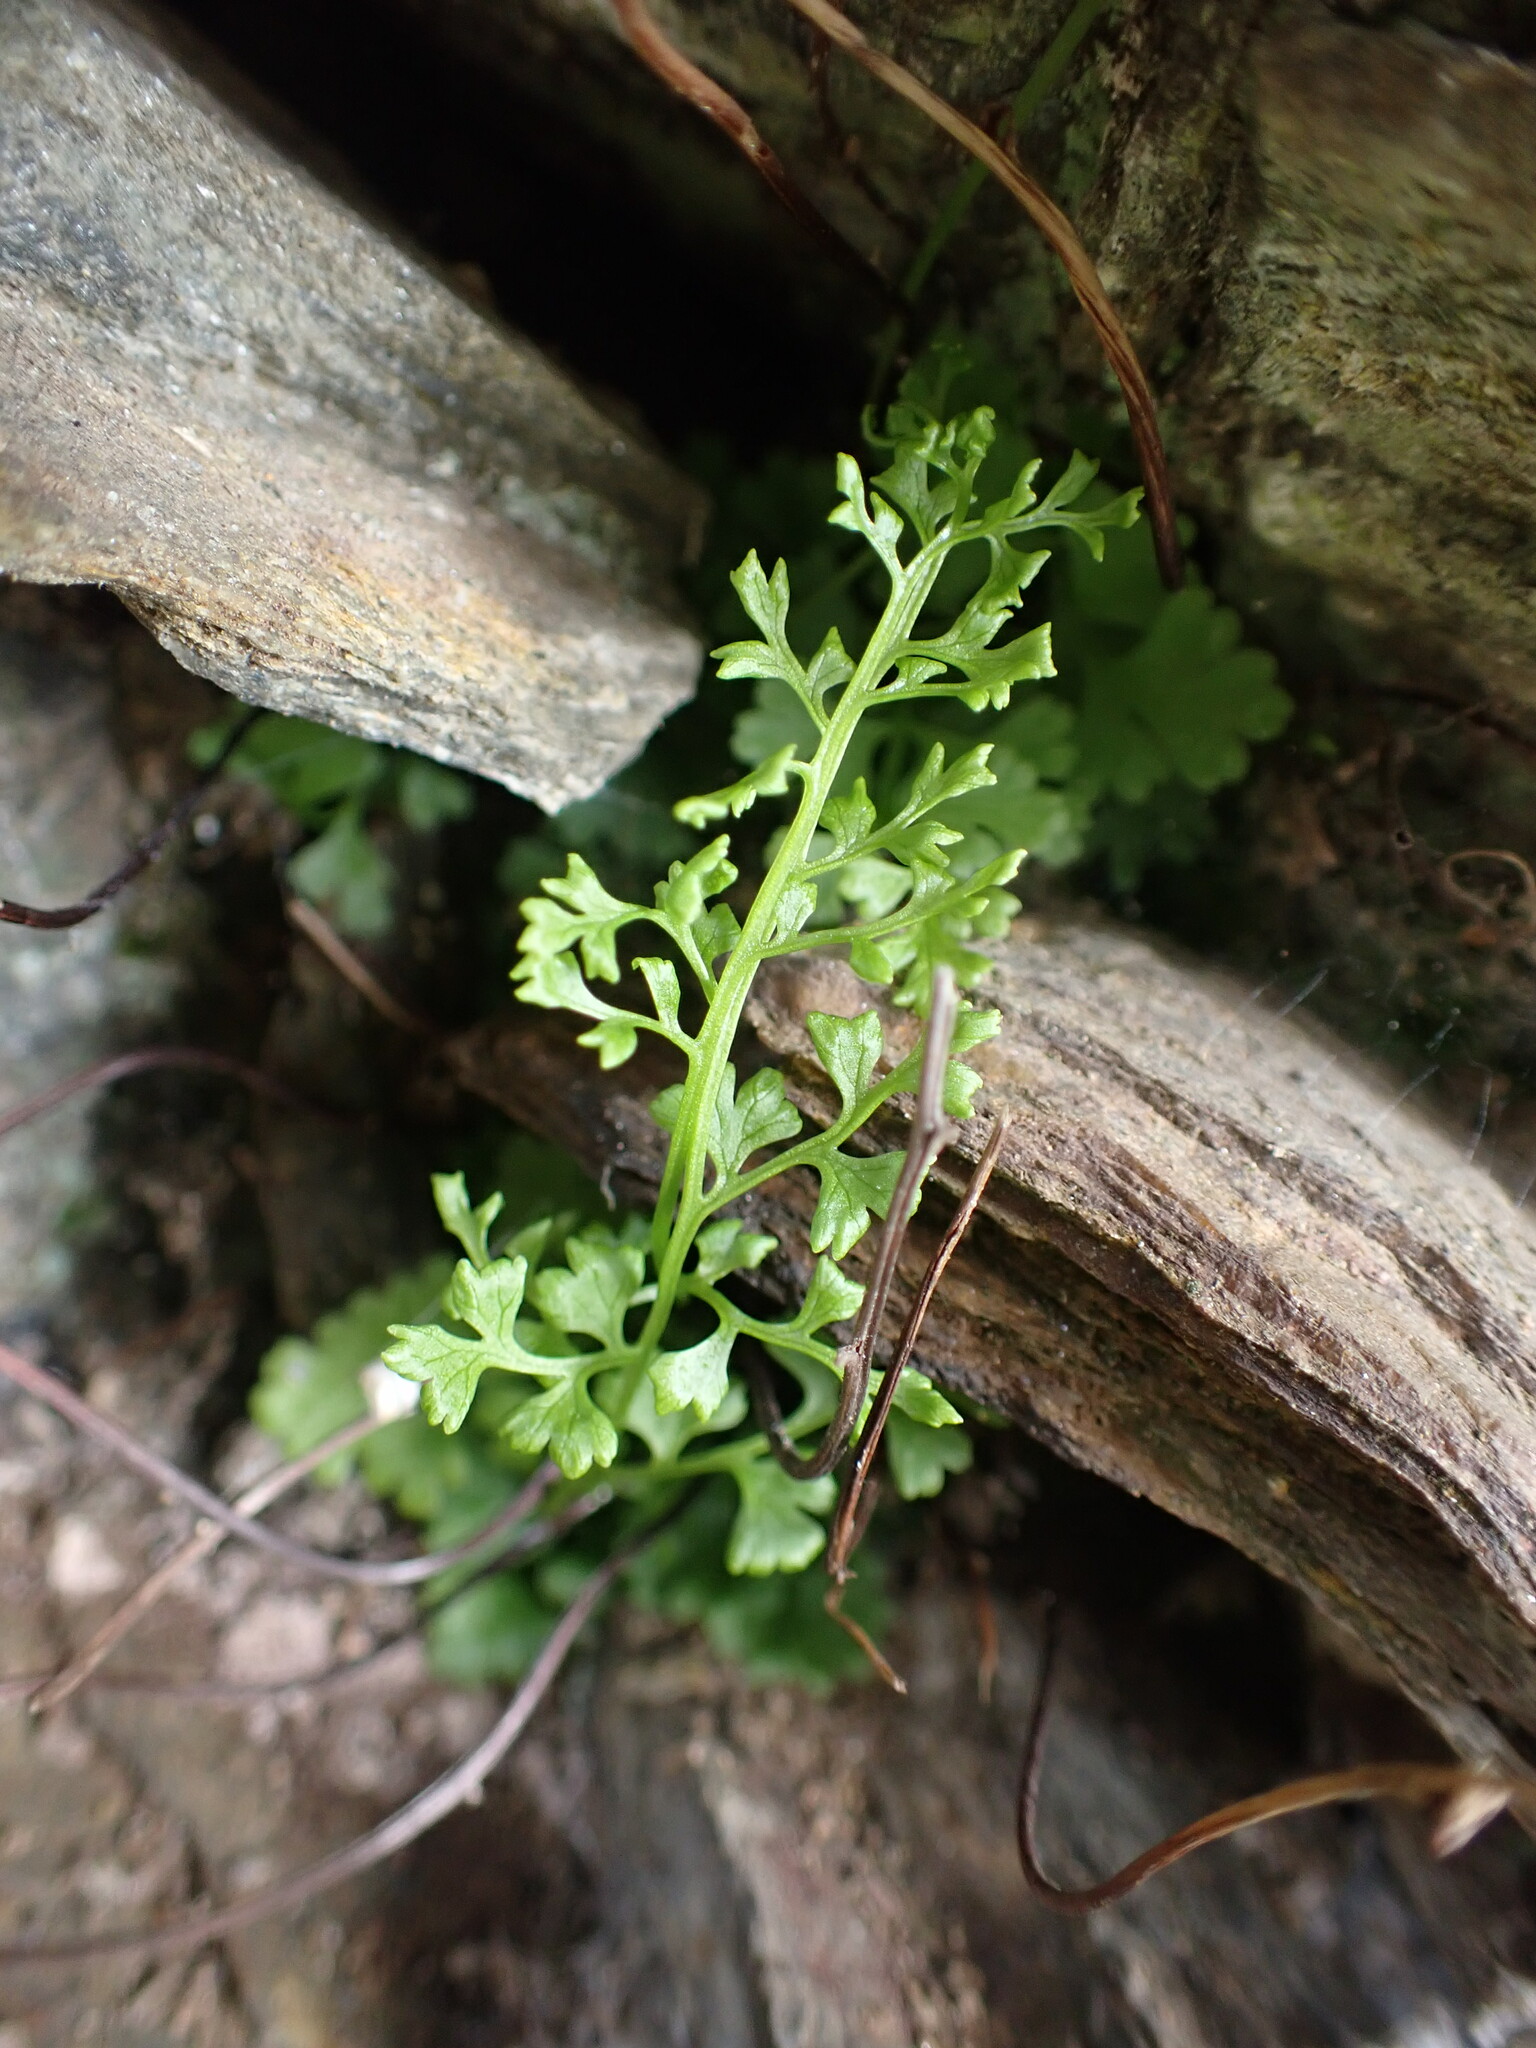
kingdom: Plantae
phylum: Tracheophyta
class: Polypodiopsida
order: Polypodiales
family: Pteridaceae
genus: Anogramma
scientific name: Anogramma leptophylla
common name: Jersey fern
